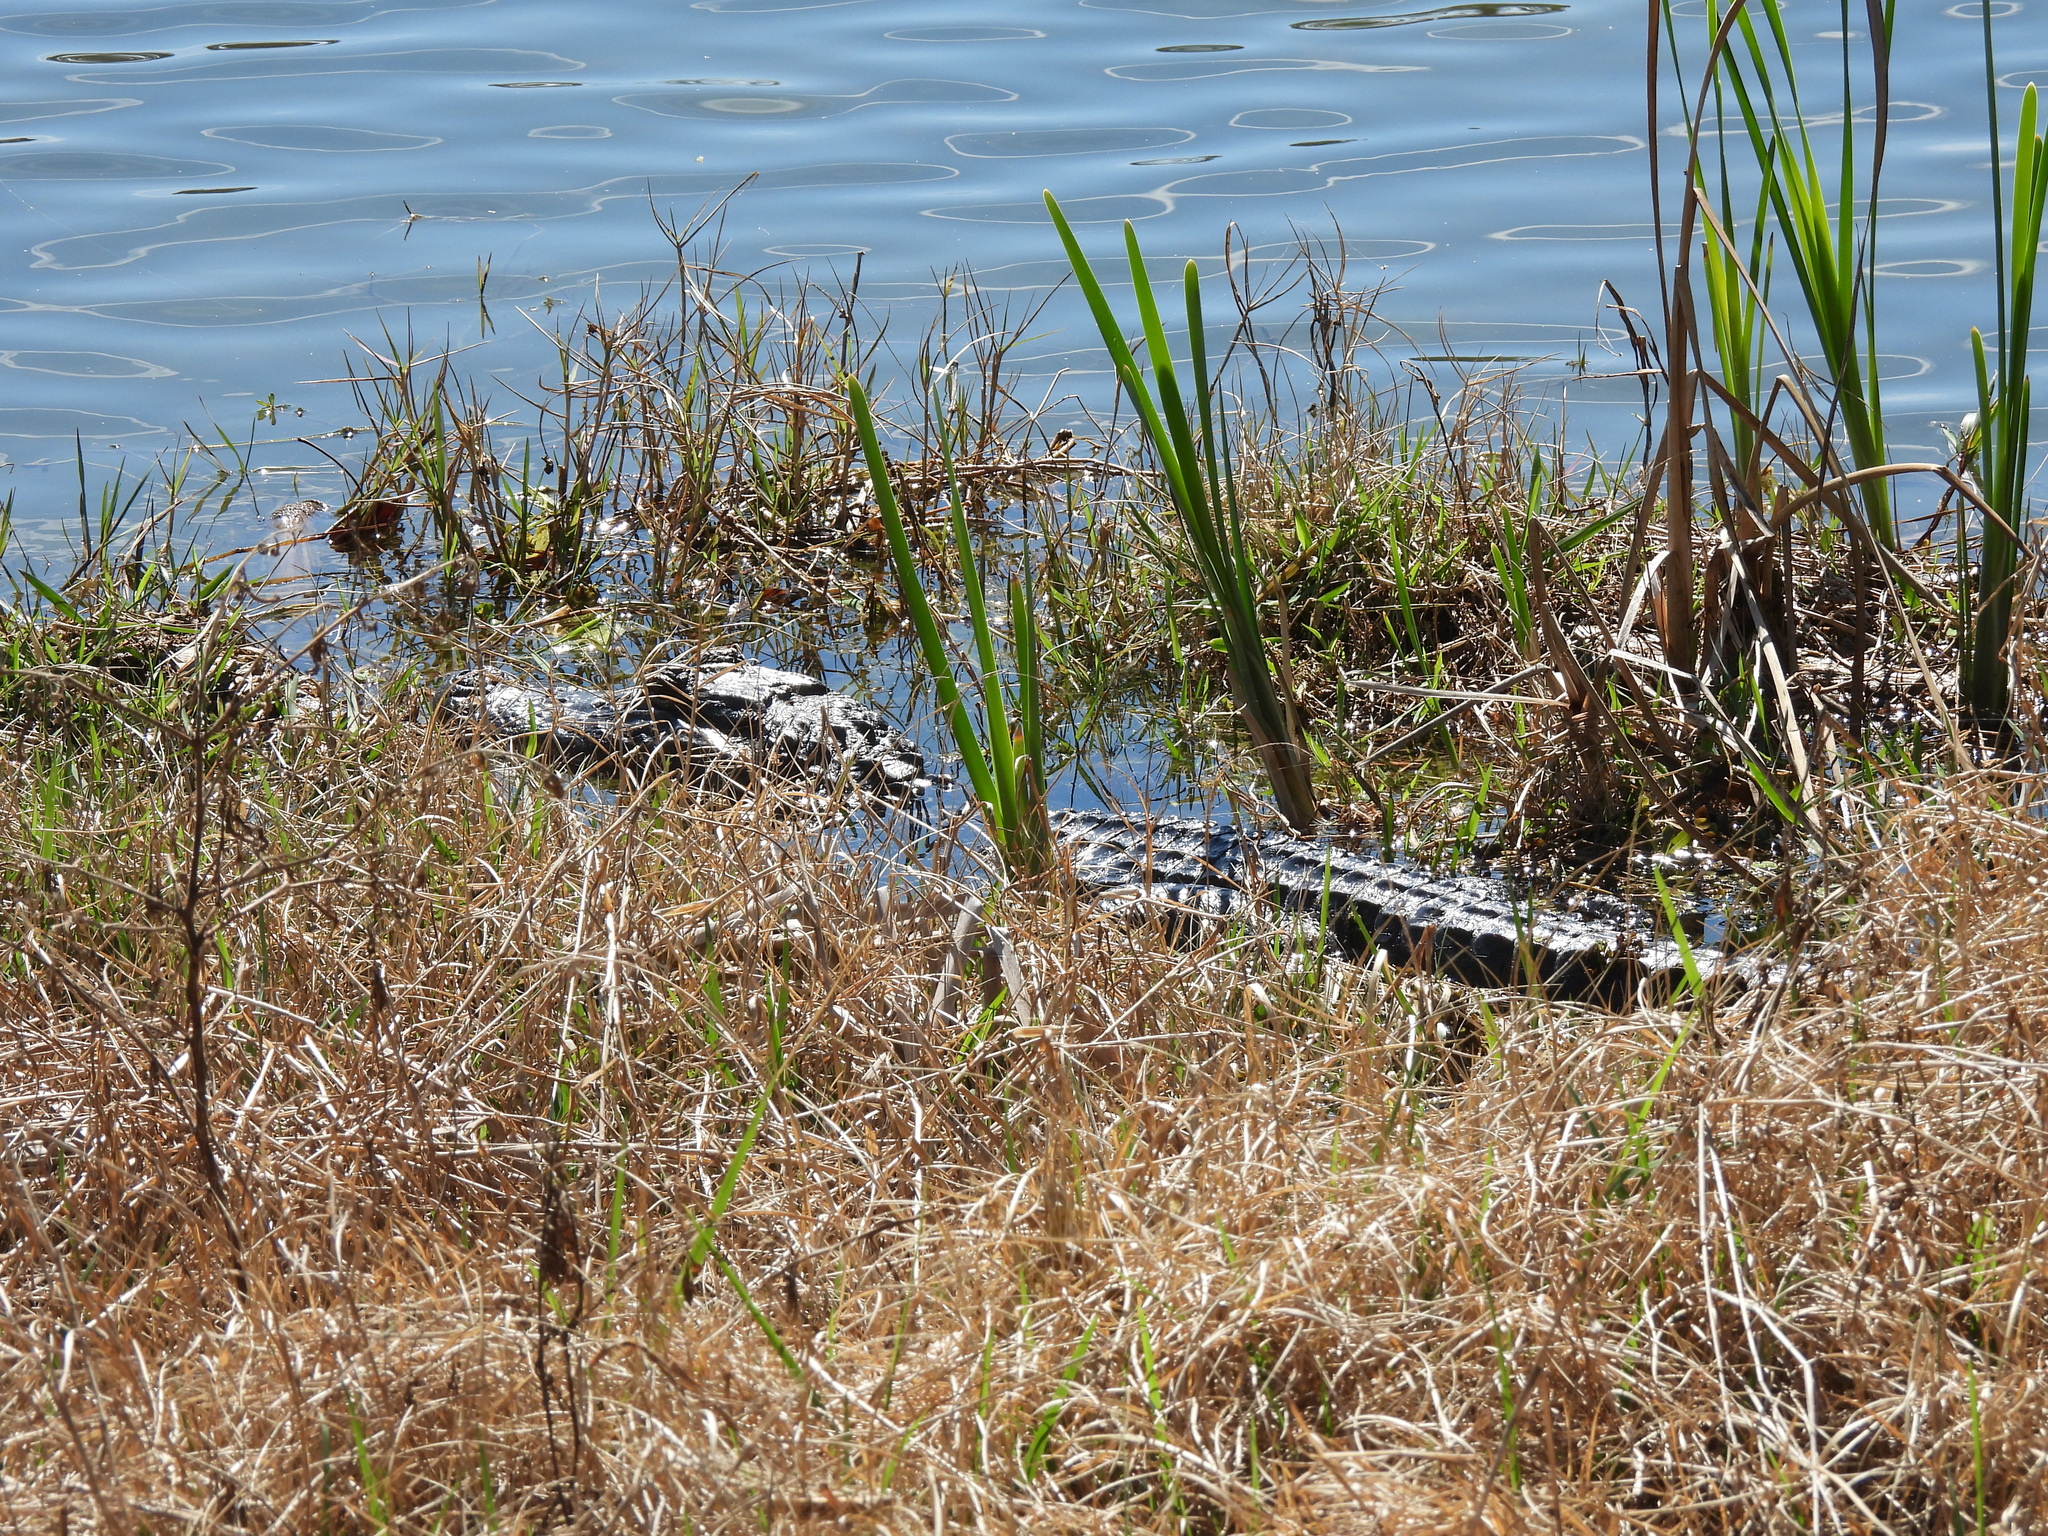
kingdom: Animalia
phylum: Chordata
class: Crocodylia
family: Alligatoridae
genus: Alligator
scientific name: Alligator mississippiensis
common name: American alligator
